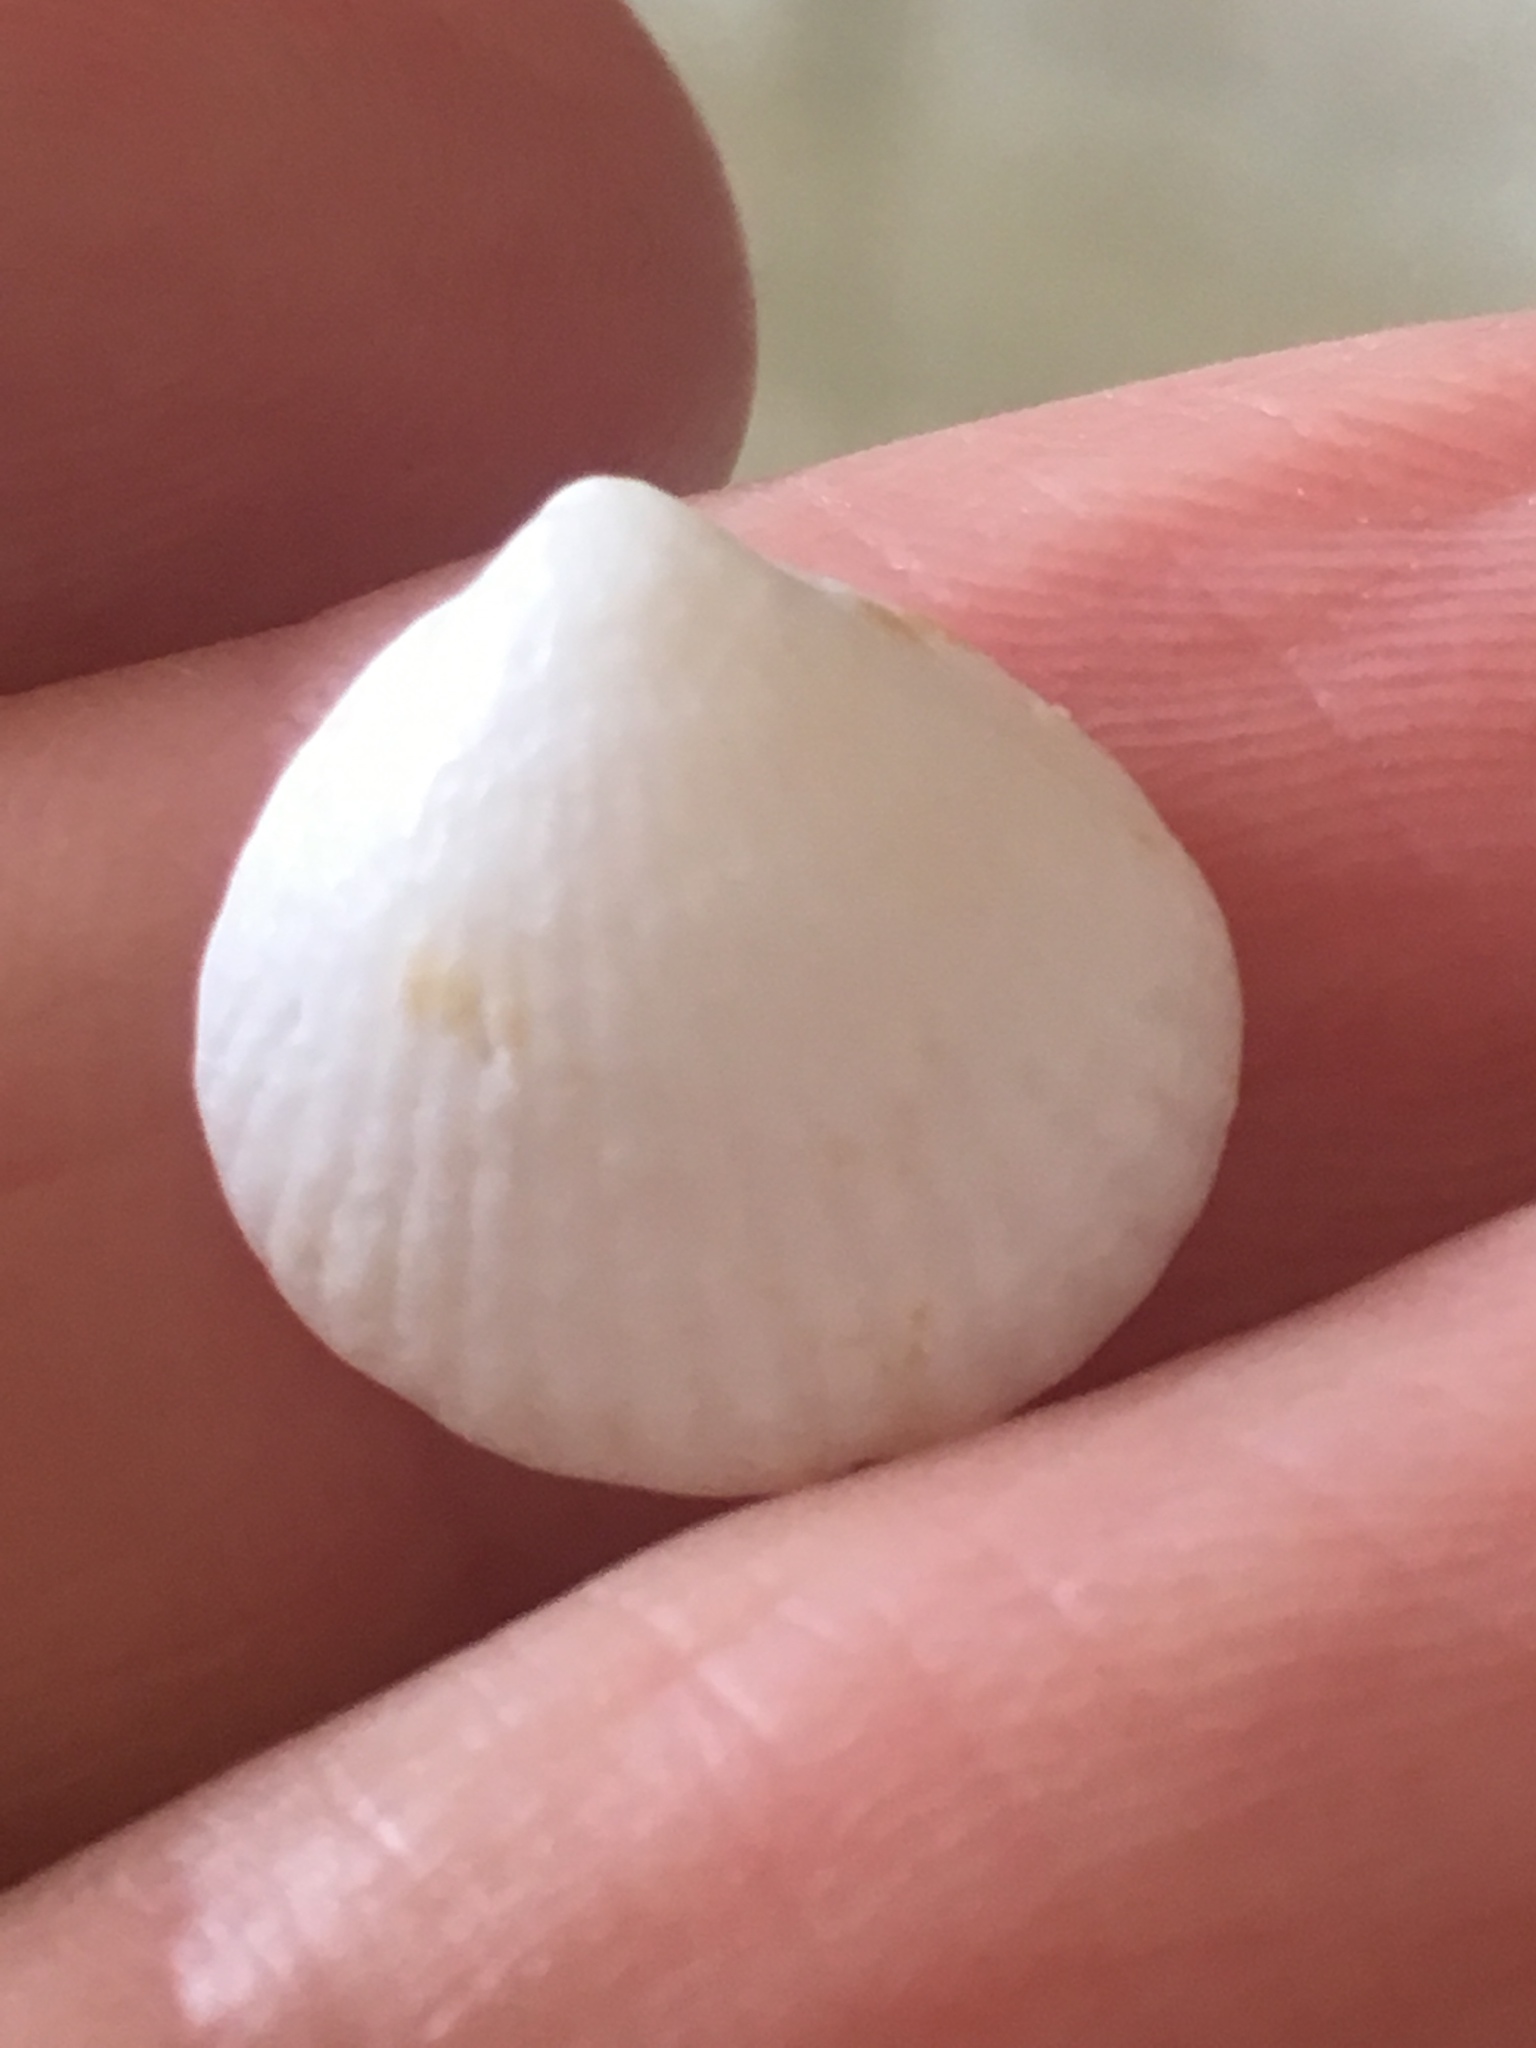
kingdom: Animalia
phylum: Mollusca
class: Bivalvia
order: Arcida
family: Glycymerididae
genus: Tucetona
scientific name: Tucetona pectinata
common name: Comb bittersweet
